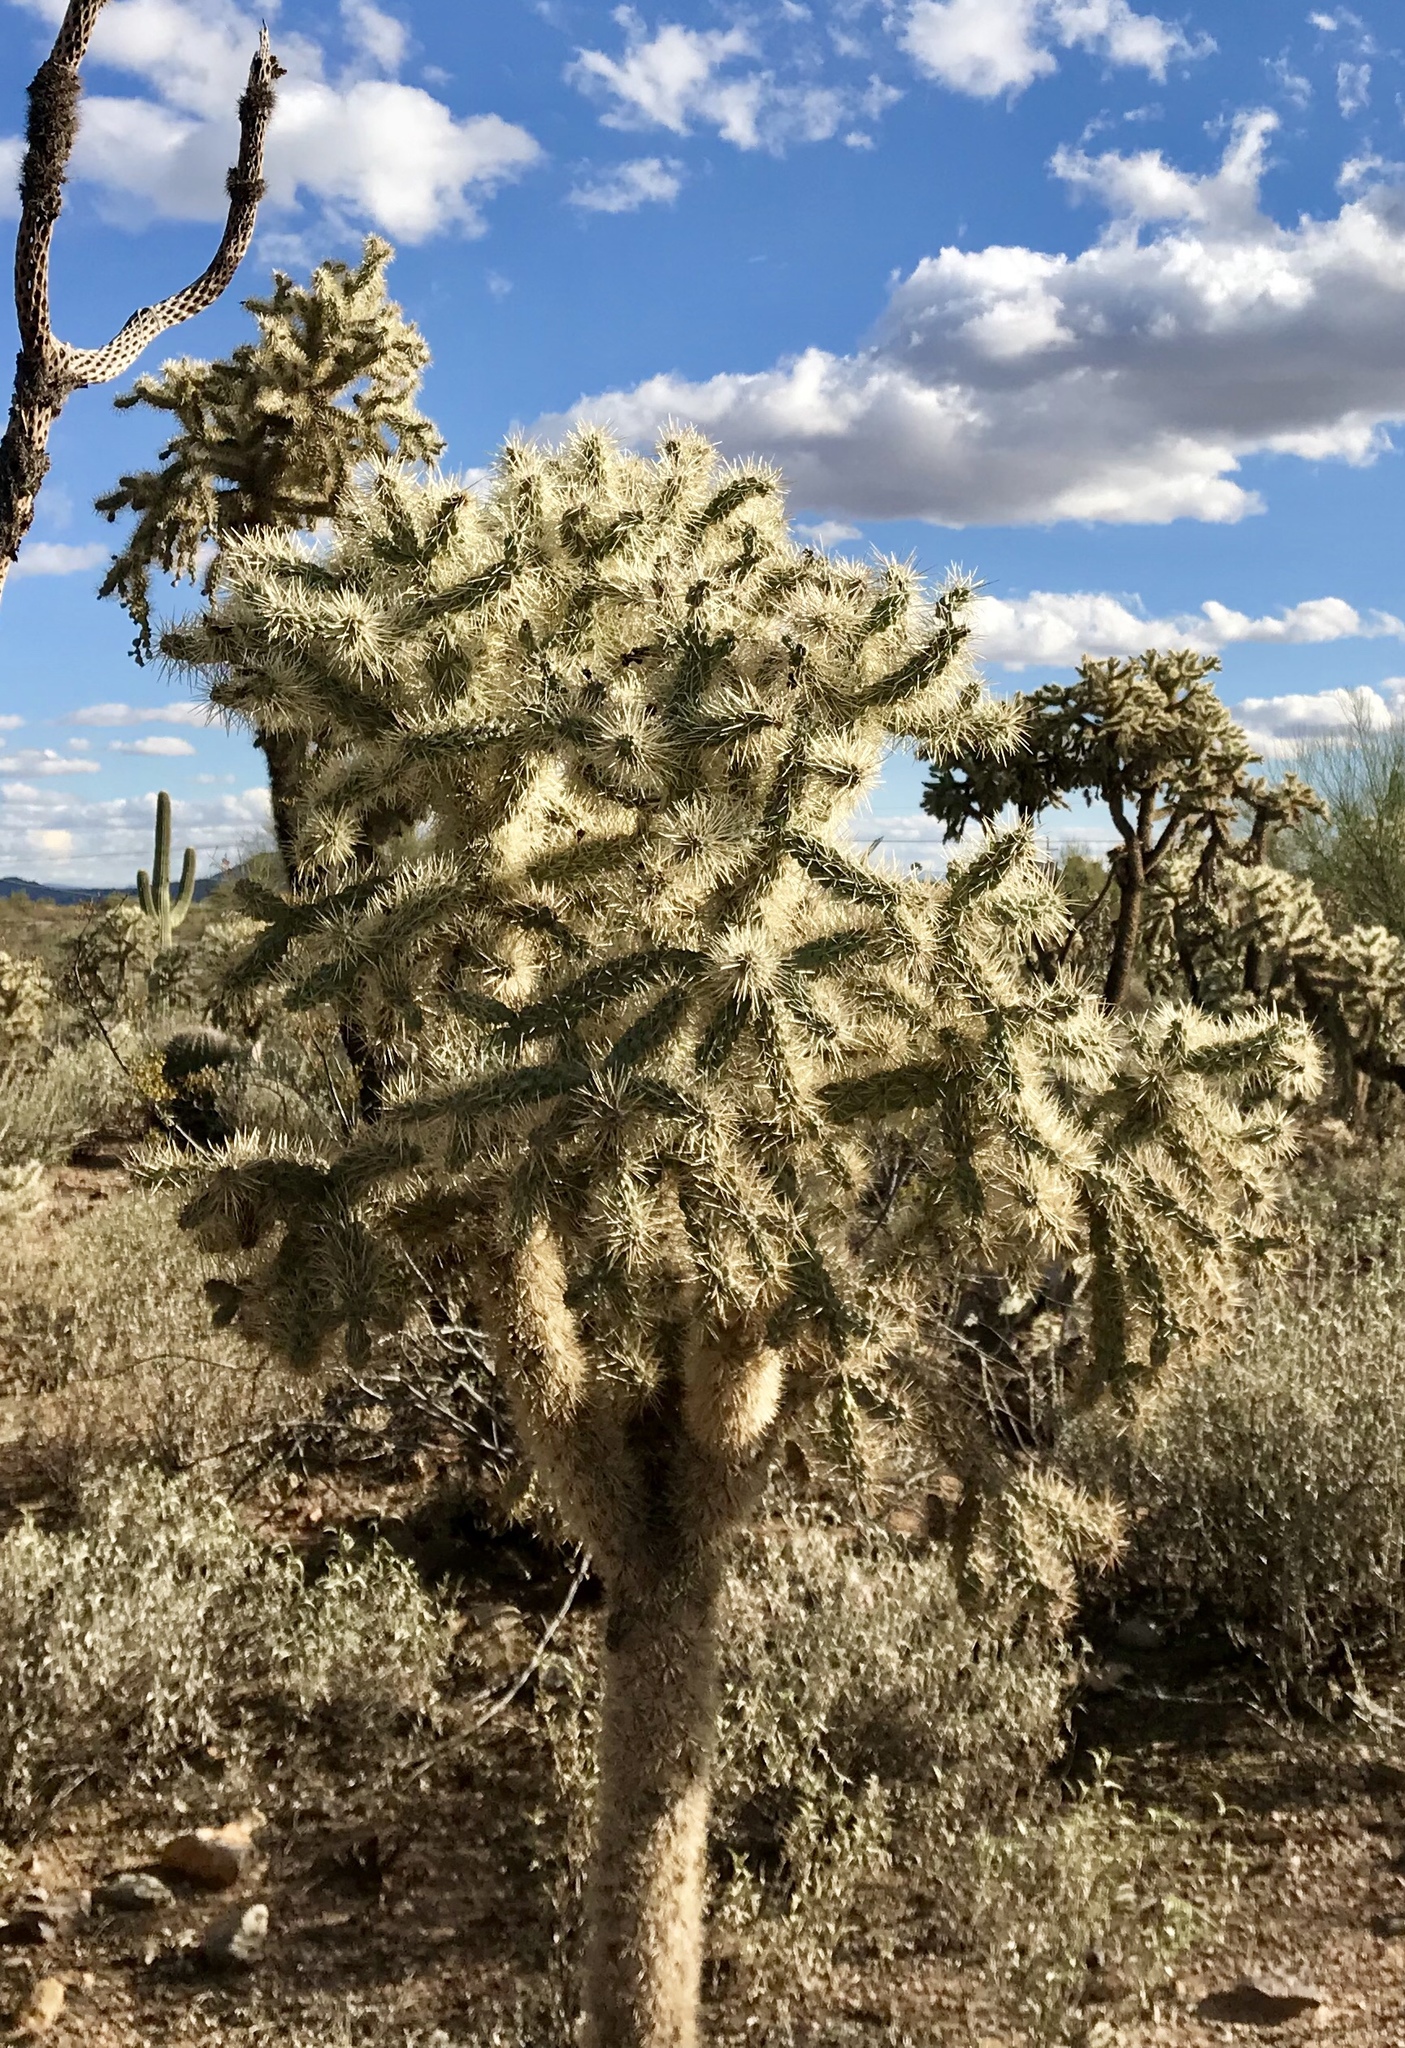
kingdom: Plantae
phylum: Tracheophyta
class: Magnoliopsida
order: Caryophyllales
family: Cactaceae
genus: Cylindropuntia
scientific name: Cylindropuntia fulgida
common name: Jumping cholla
